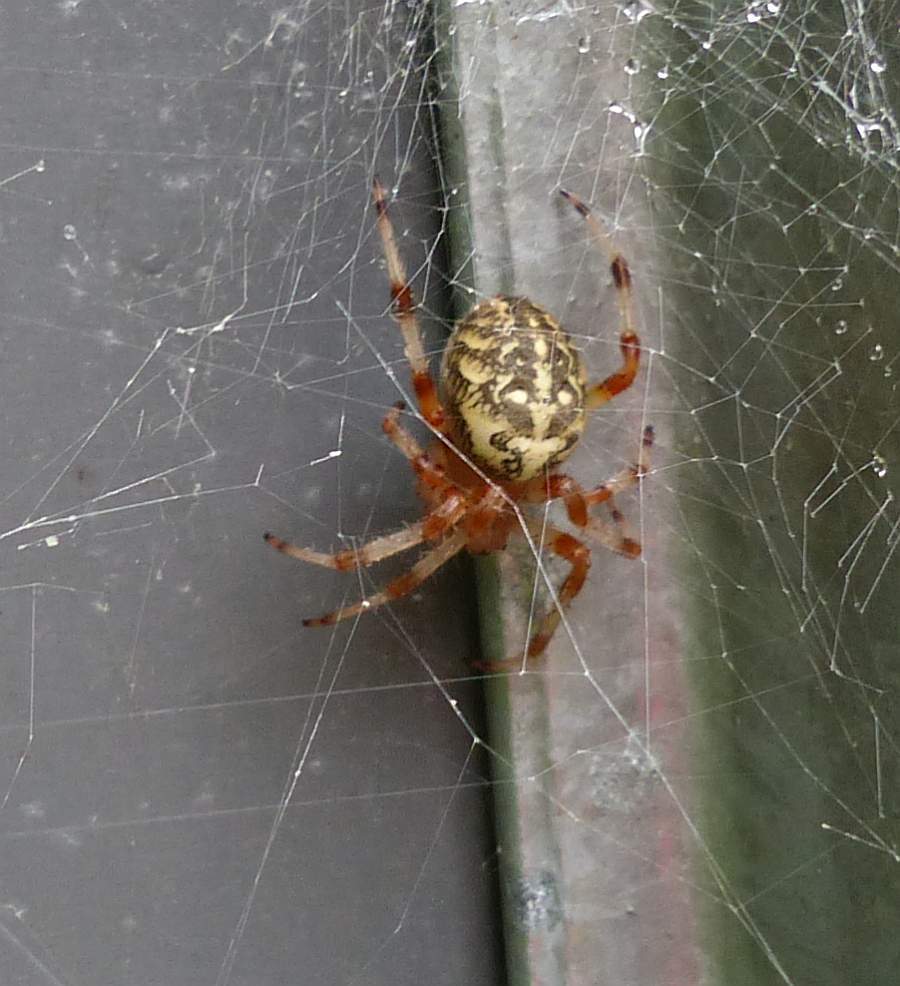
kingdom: Animalia
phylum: Arthropoda
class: Arachnida
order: Araneae
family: Araneidae
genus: Araneus
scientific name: Araneus marmoreus
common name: Marbled orbweaver
